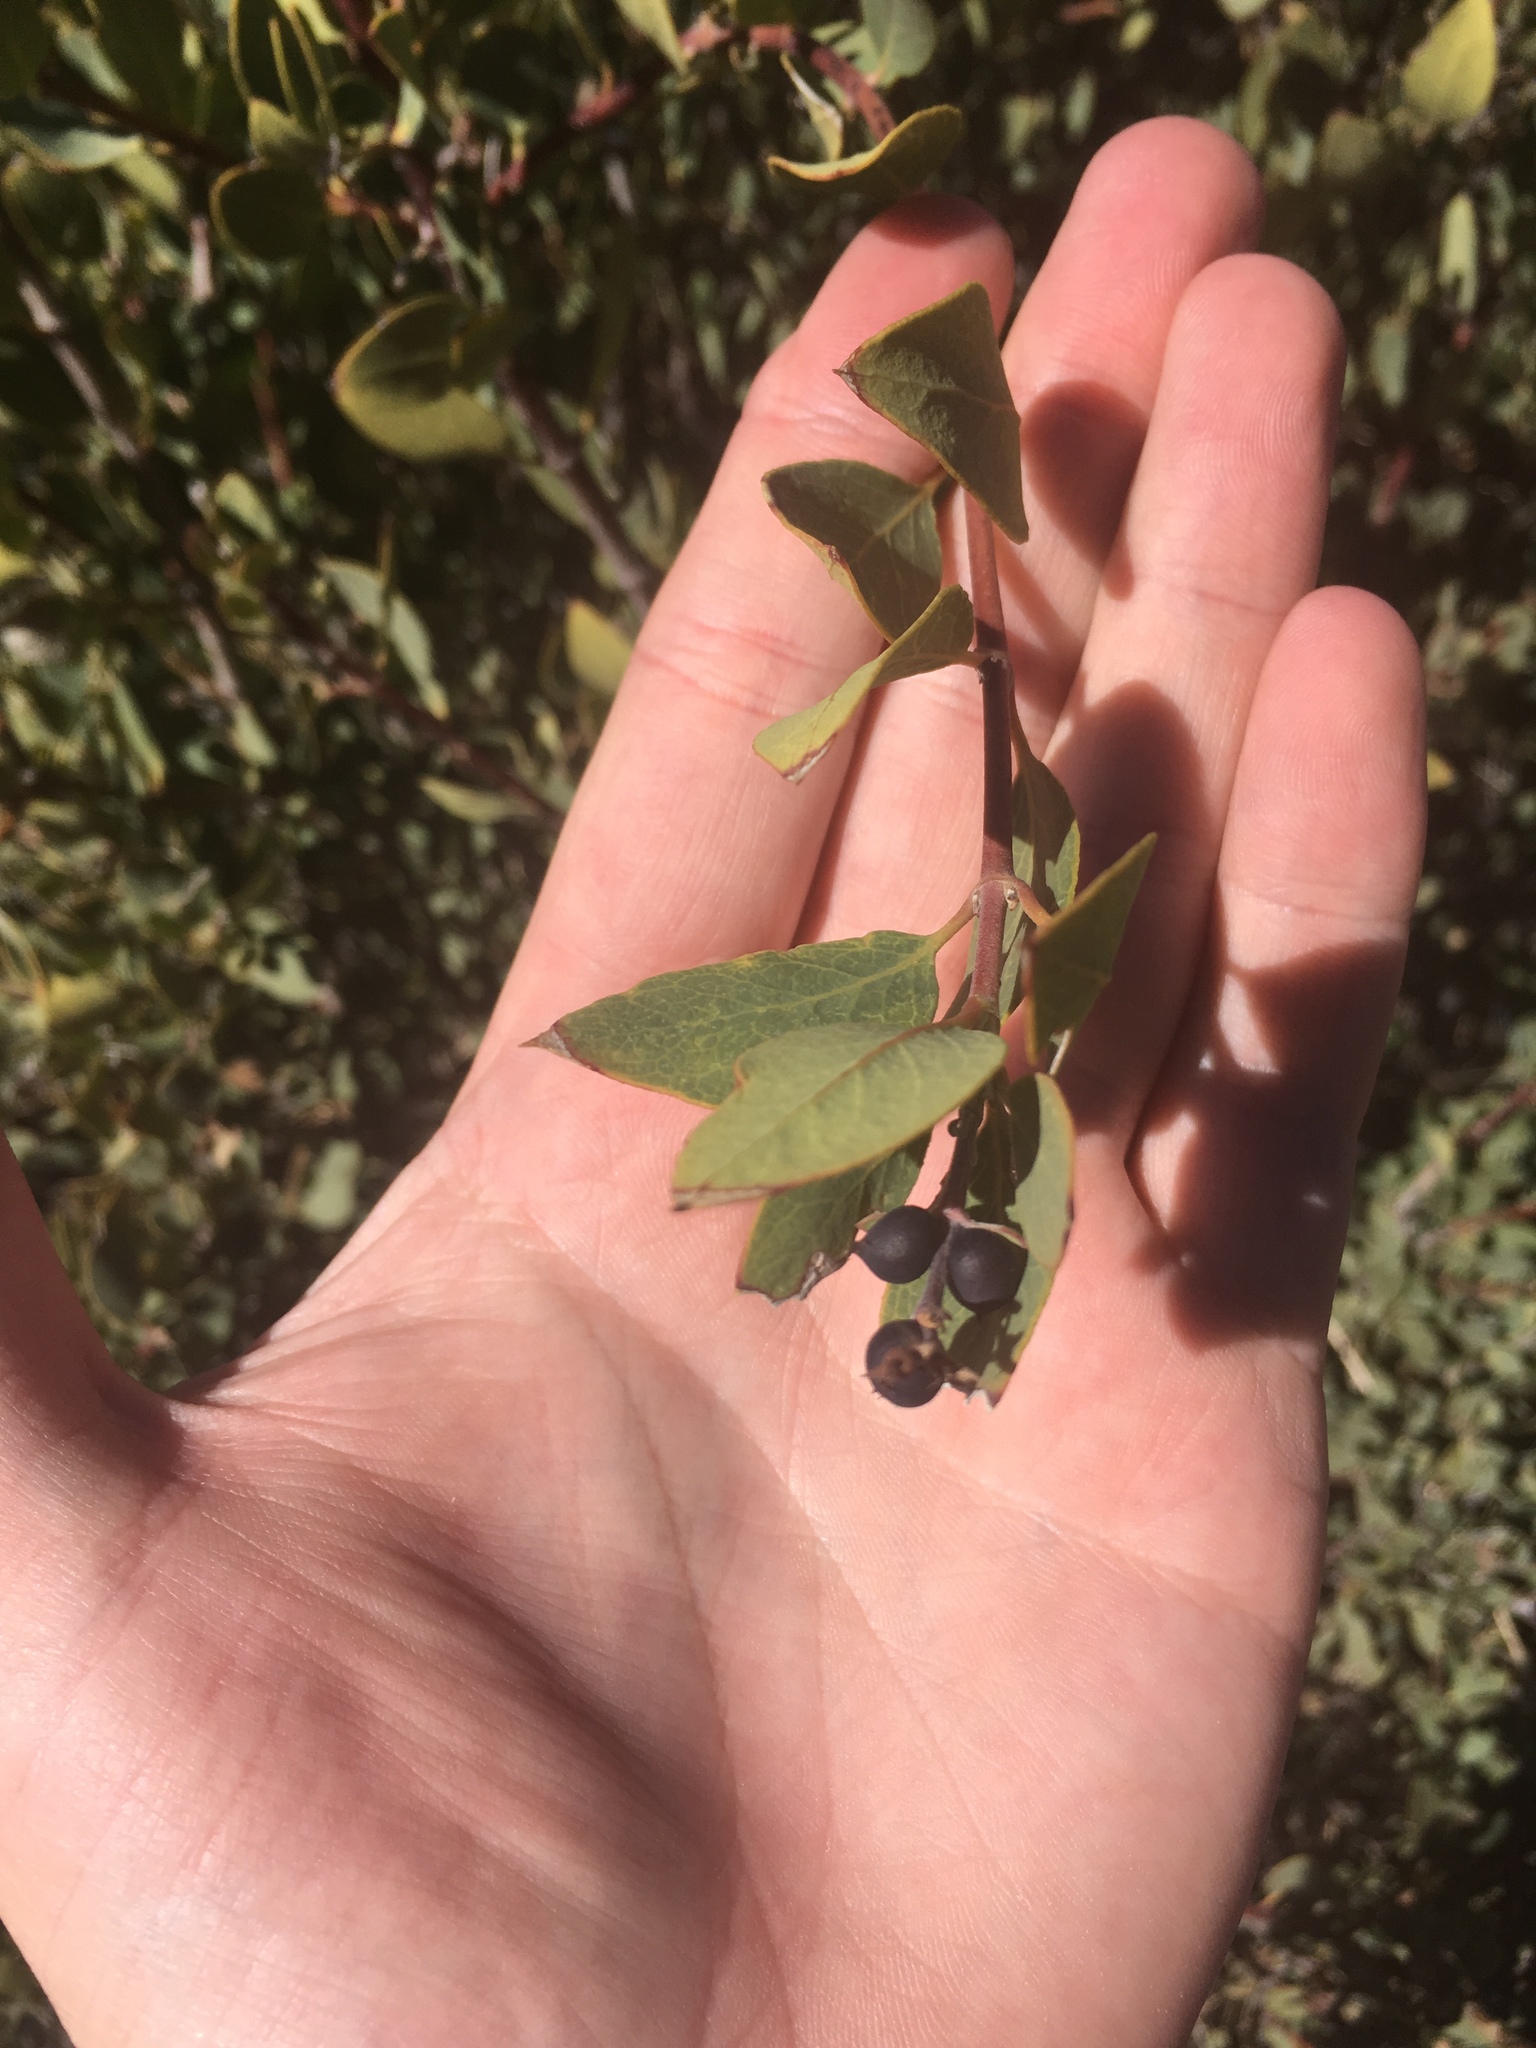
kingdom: Plantae
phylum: Tracheophyta
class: Magnoliopsida
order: Garryales
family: Garryaceae
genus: Garrya
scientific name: Garrya wrightii
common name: Wright's silktassel
